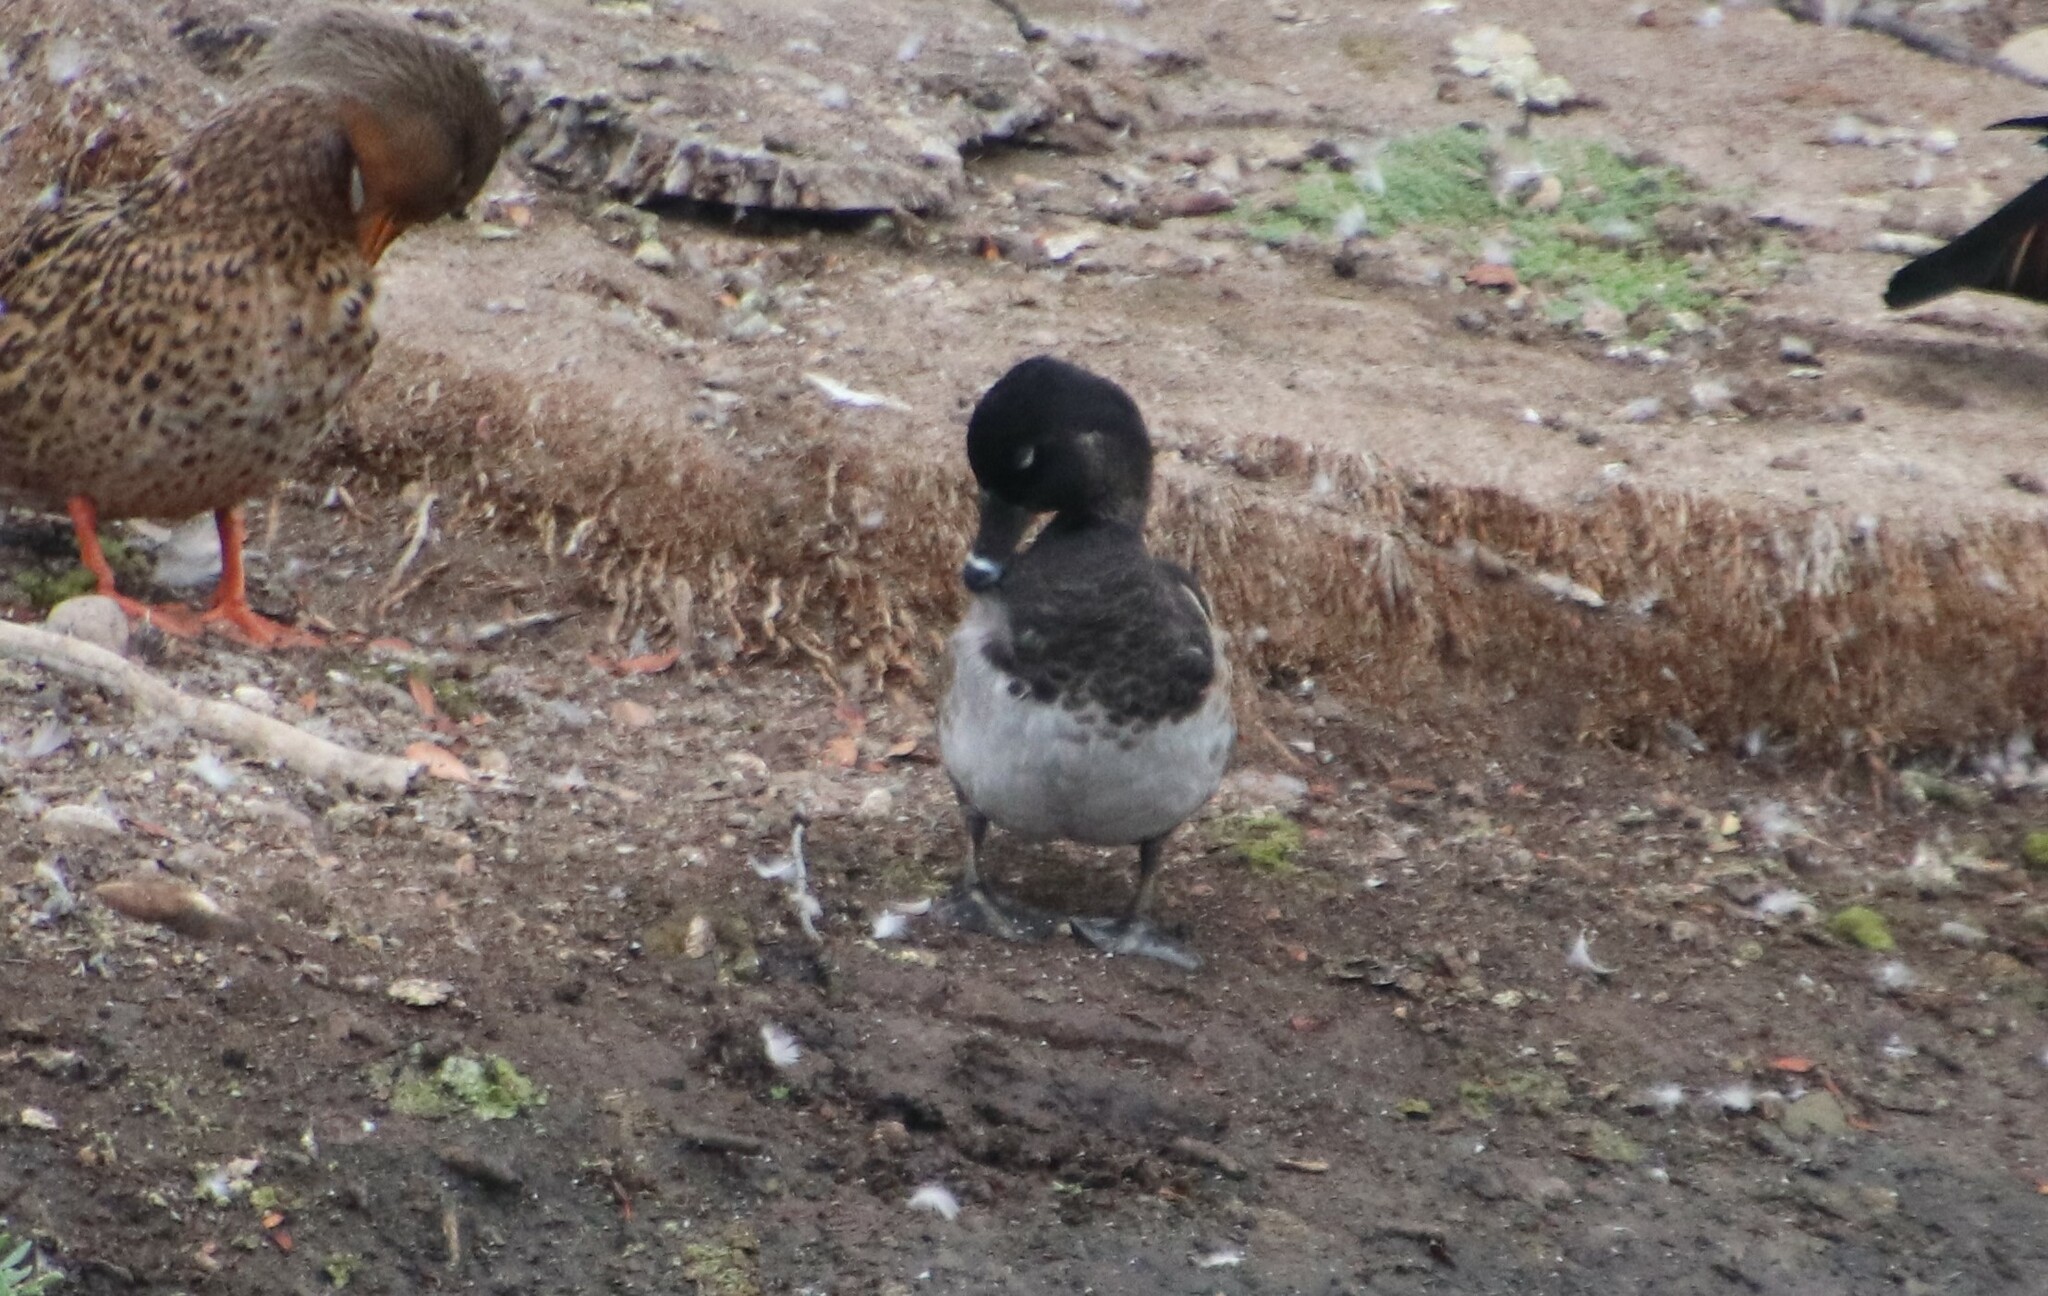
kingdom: Animalia
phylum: Chordata
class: Aves
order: Anseriformes
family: Anatidae
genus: Aythya
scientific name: Aythya collaris
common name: Ring-necked duck
